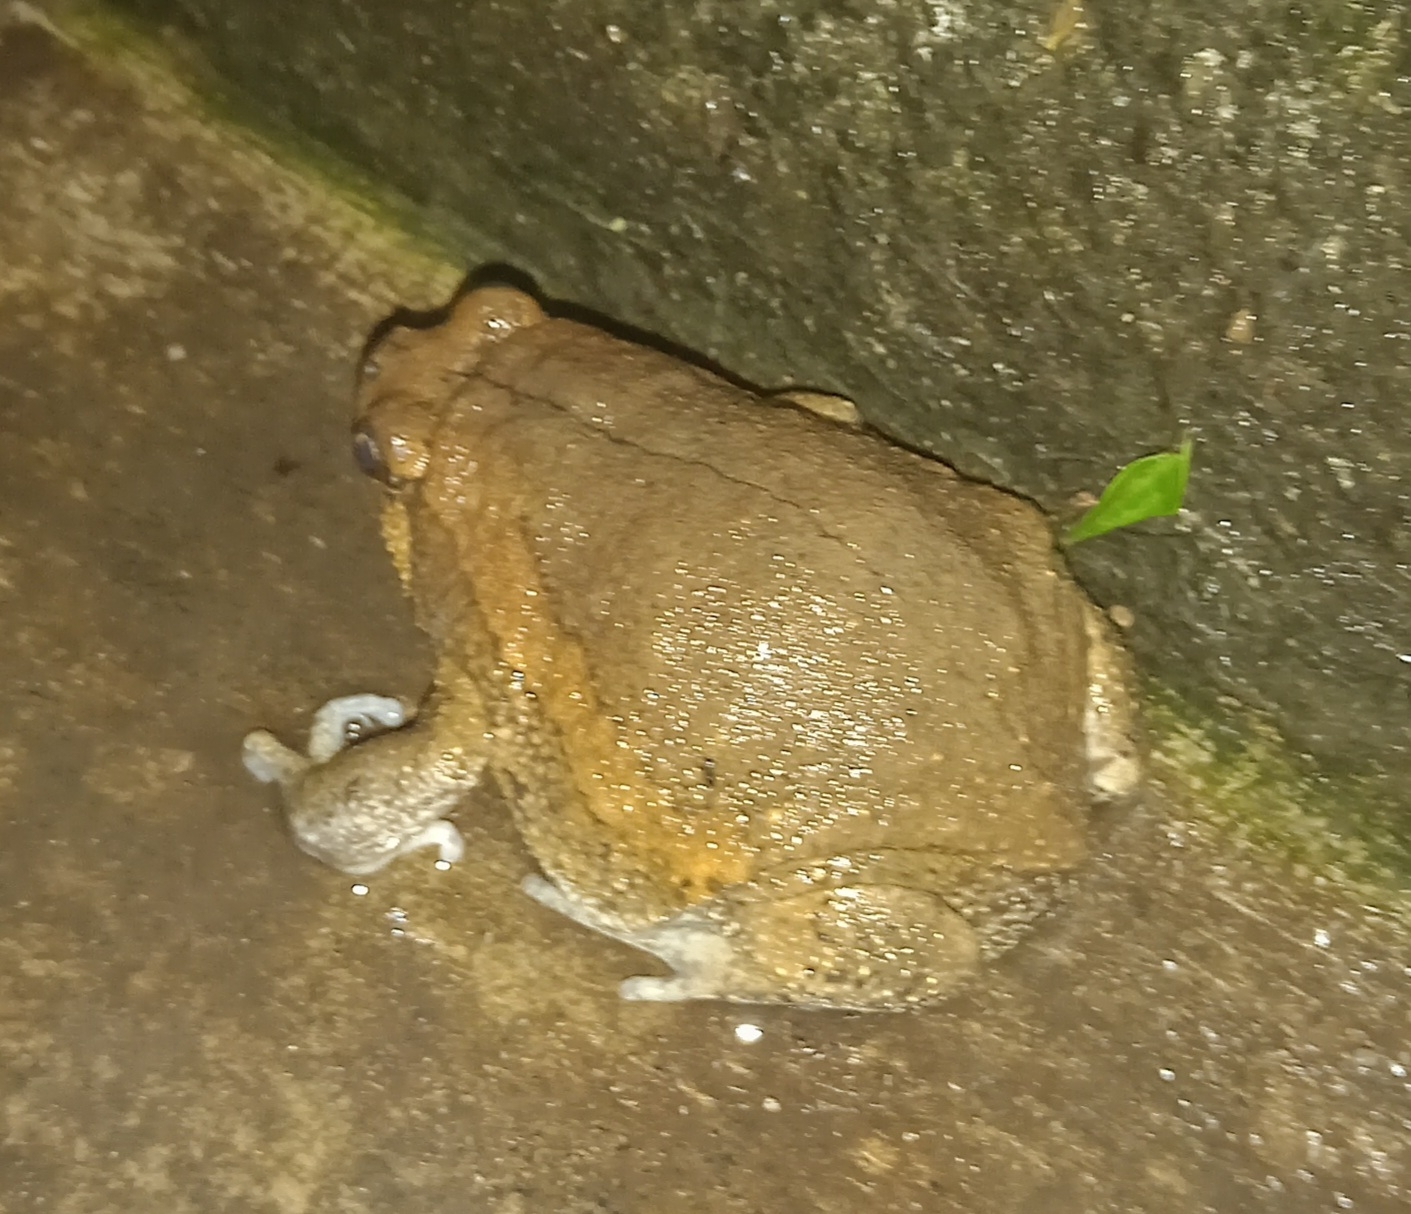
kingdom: Animalia
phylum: Chordata
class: Amphibia
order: Anura
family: Microhylidae
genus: Kaloula
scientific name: Kaloula pulchra
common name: Common,banded bullfrog
